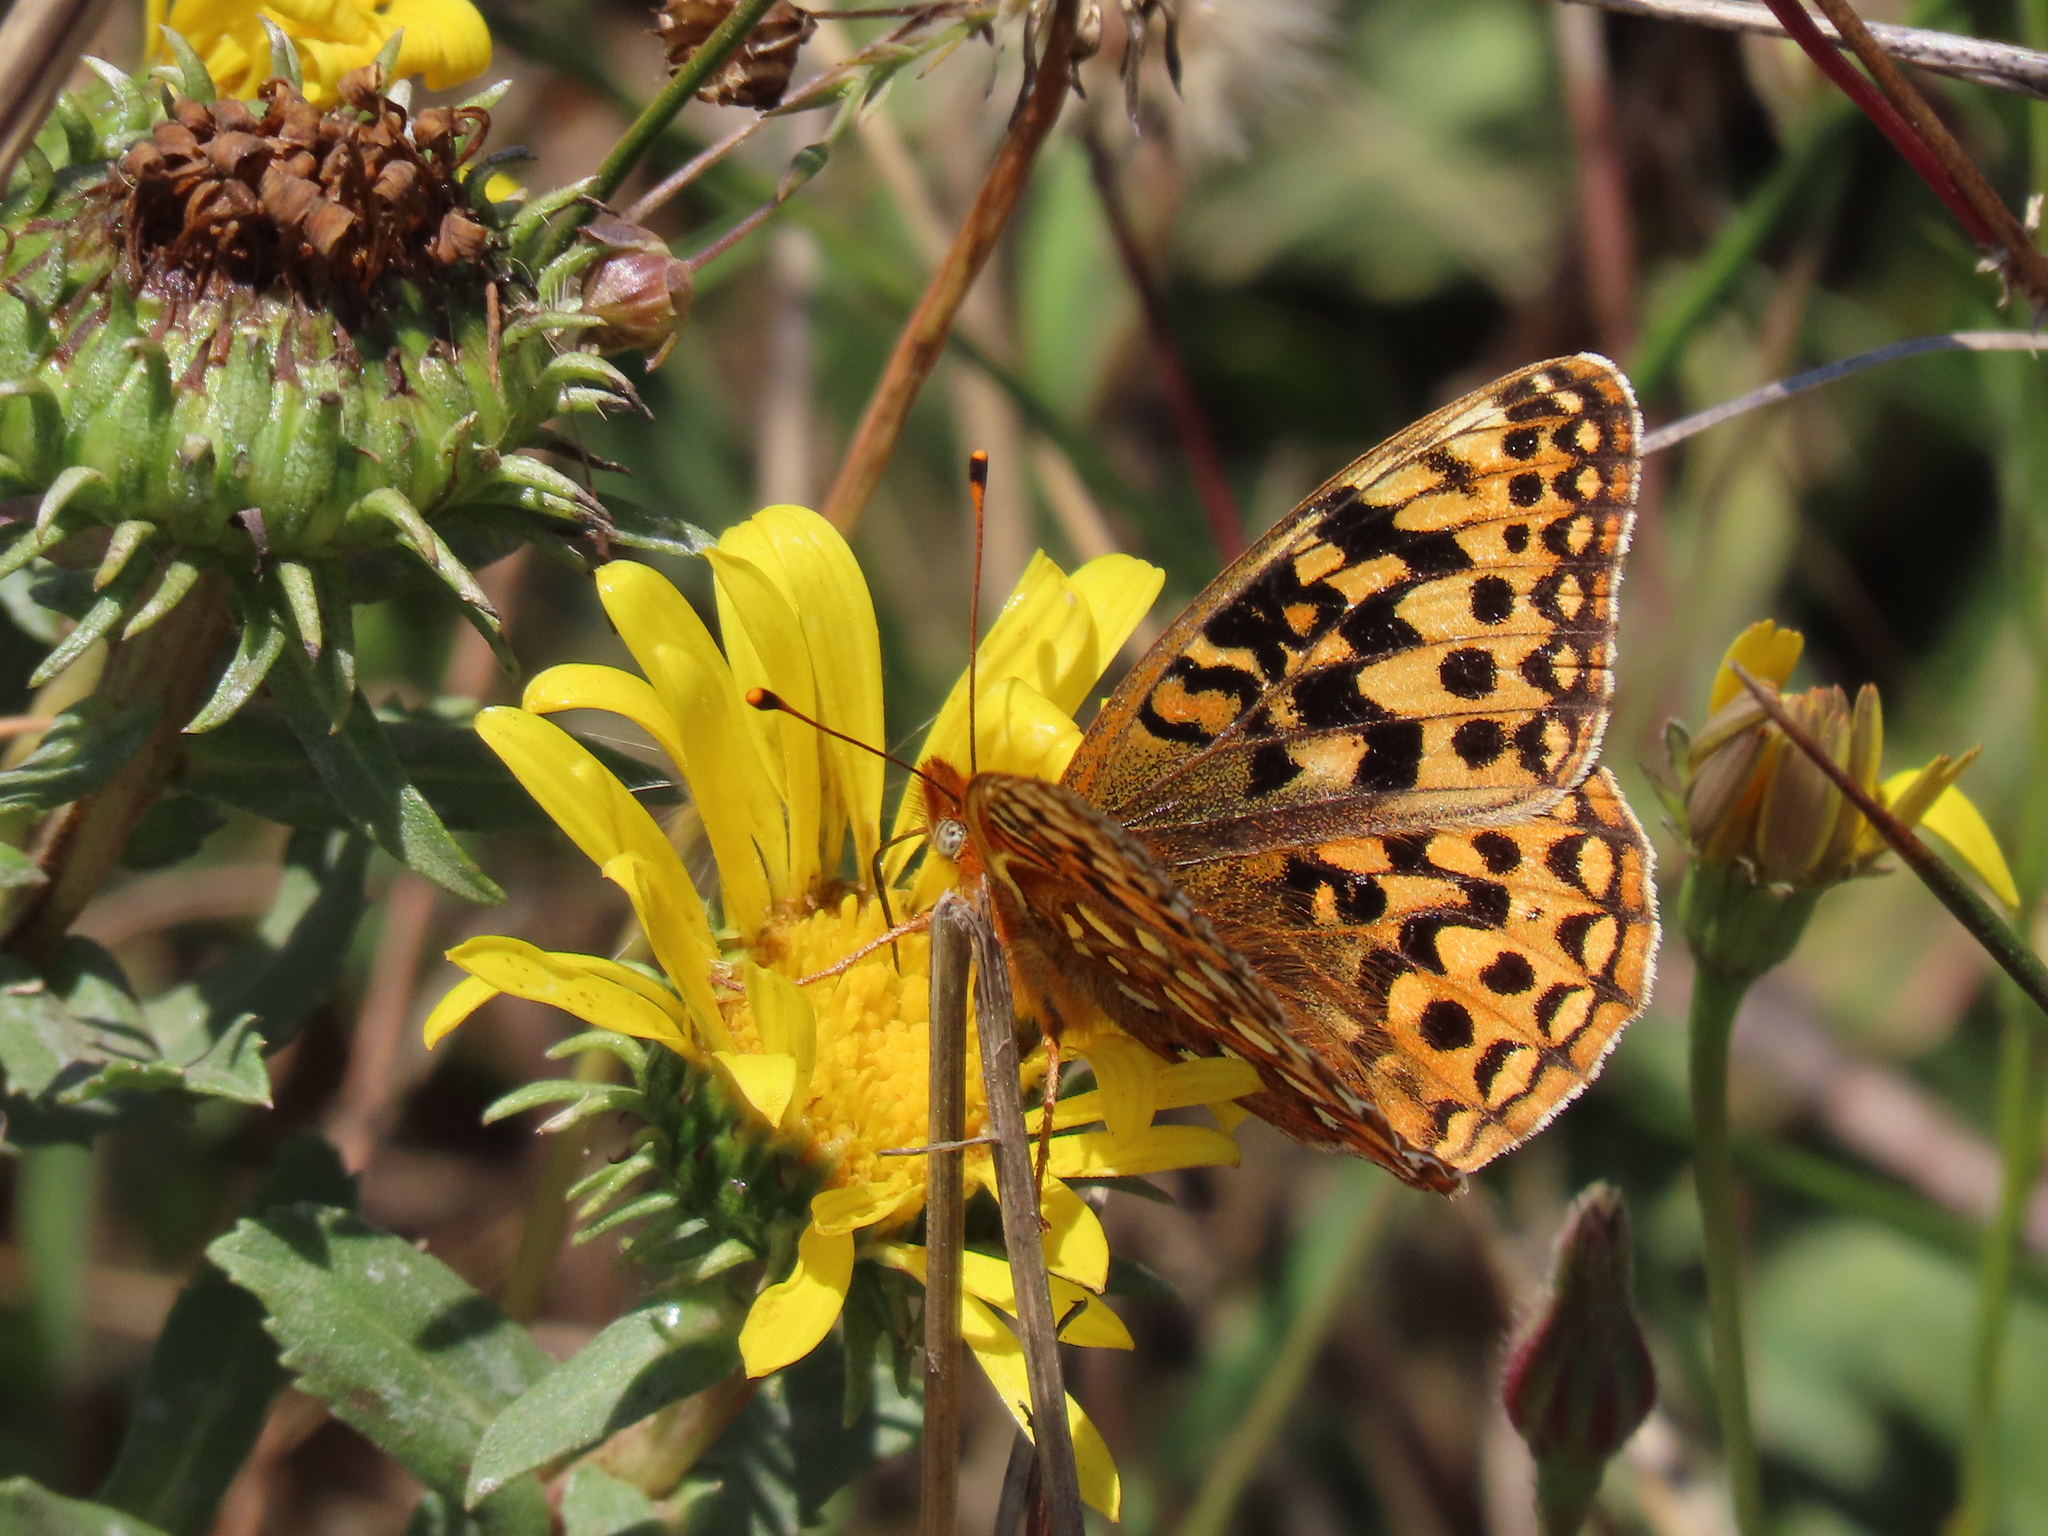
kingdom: Animalia
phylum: Arthropoda
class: Insecta
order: Lepidoptera
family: Nymphalidae
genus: Speyeria
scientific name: Speyeria zerene
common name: Zerene fritillary
